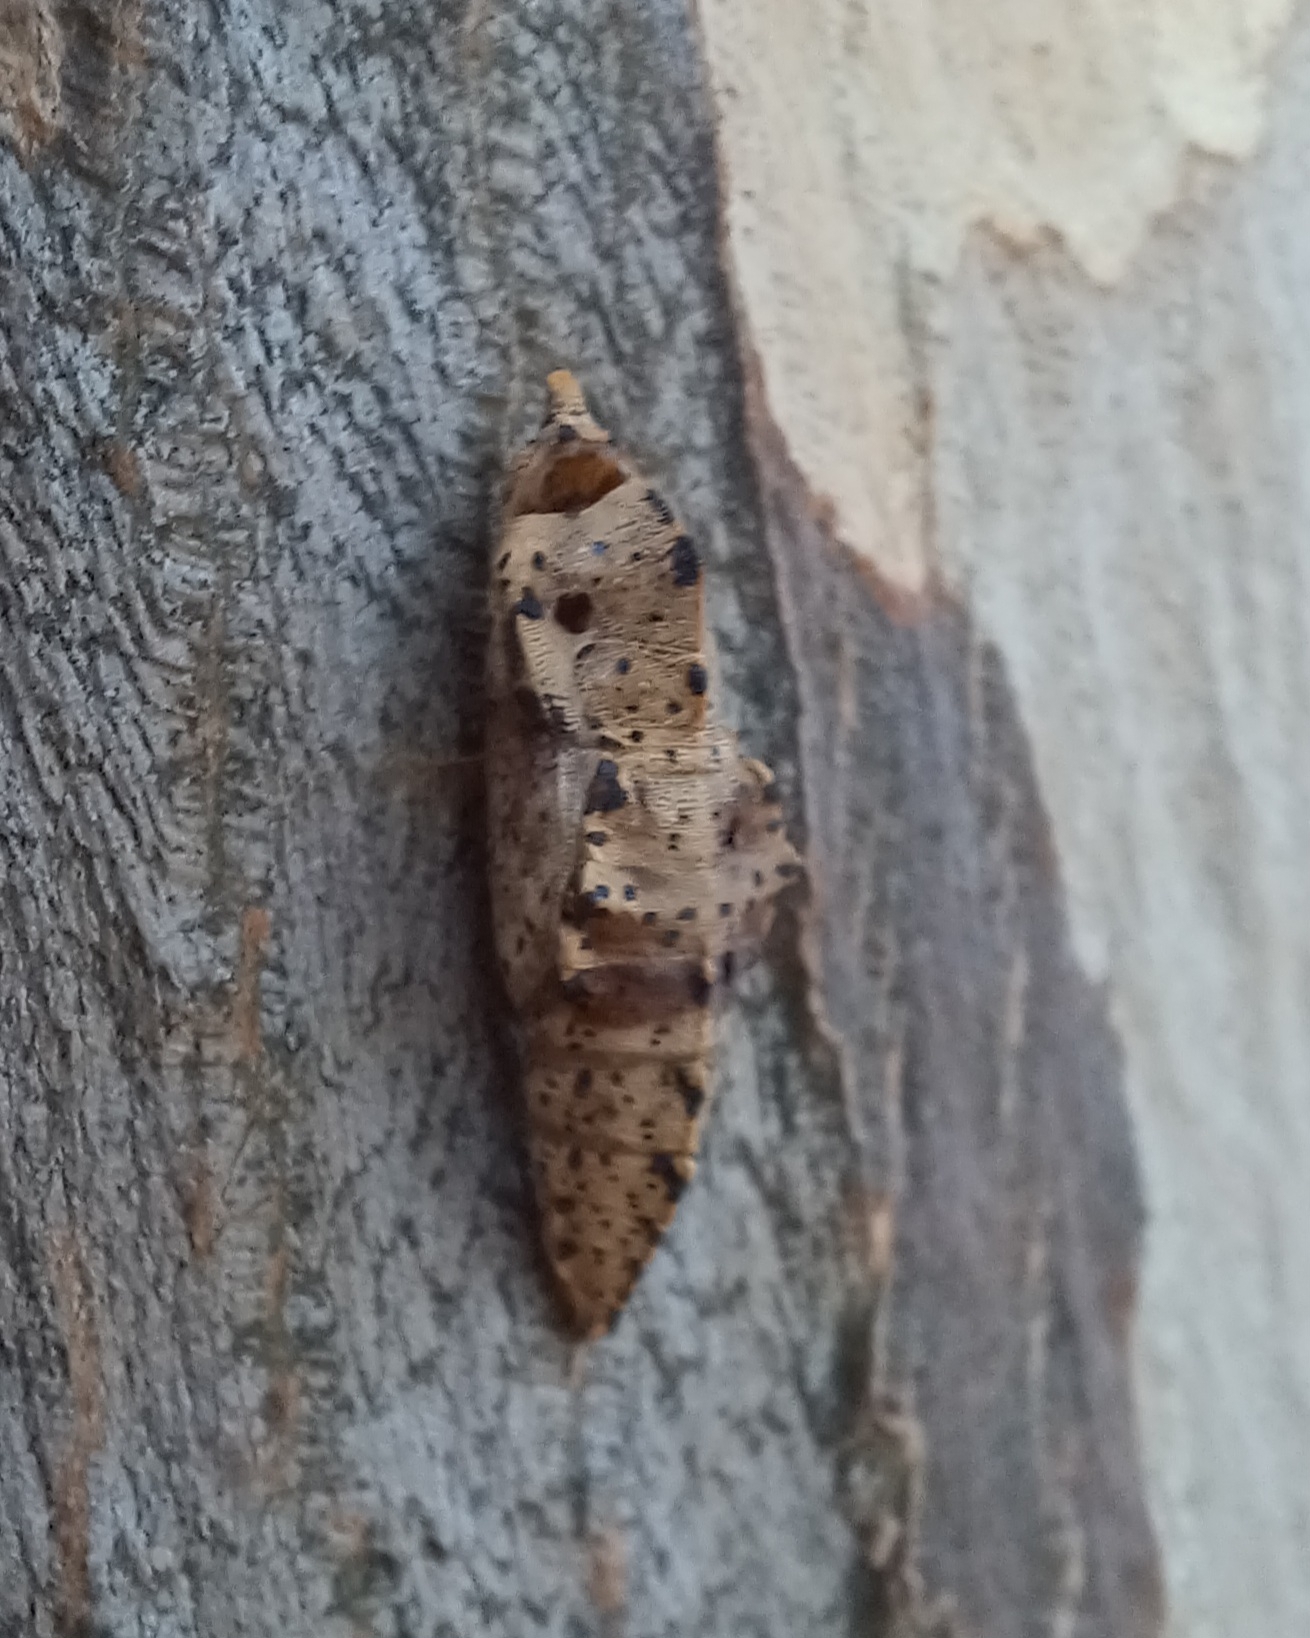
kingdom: Animalia
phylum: Arthropoda
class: Insecta
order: Lepidoptera
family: Pieridae
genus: Pieris
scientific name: Pieris brassicae
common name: Large white
